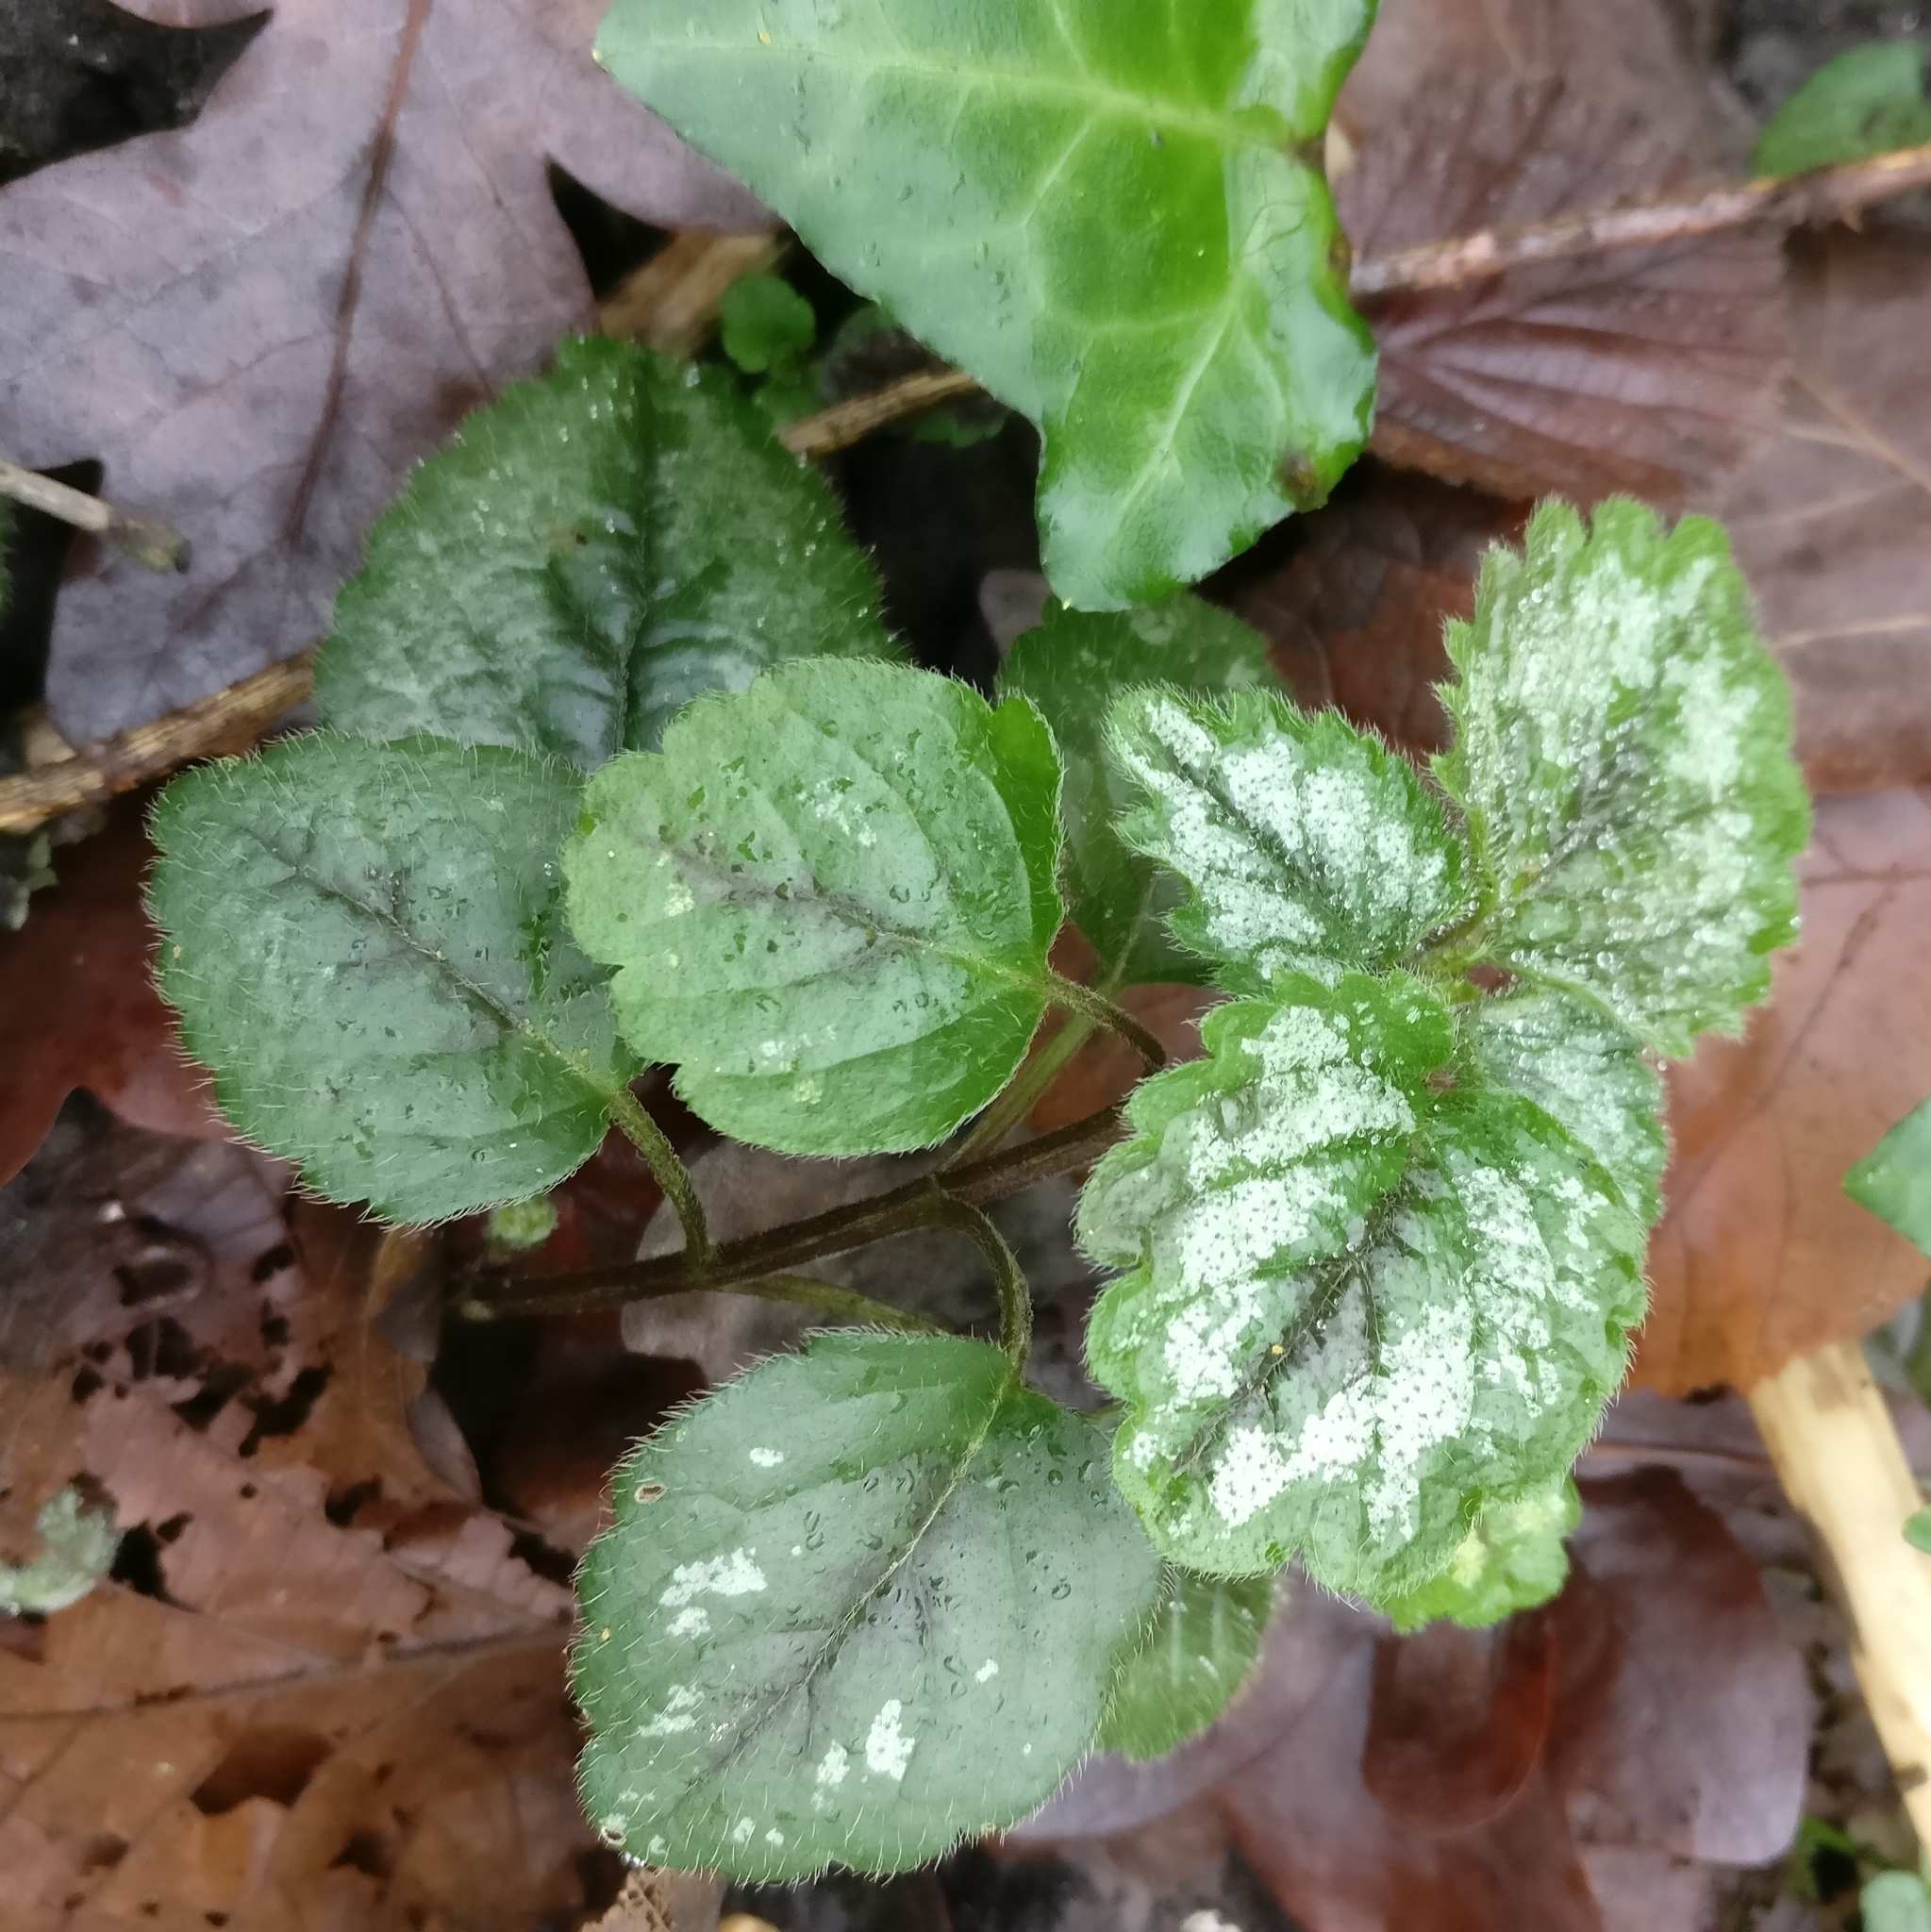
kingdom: Plantae
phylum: Tracheophyta
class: Magnoliopsida
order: Lamiales
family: Lamiaceae
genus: Lamium
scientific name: Lamium galeobdolon
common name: Yellow archangel
